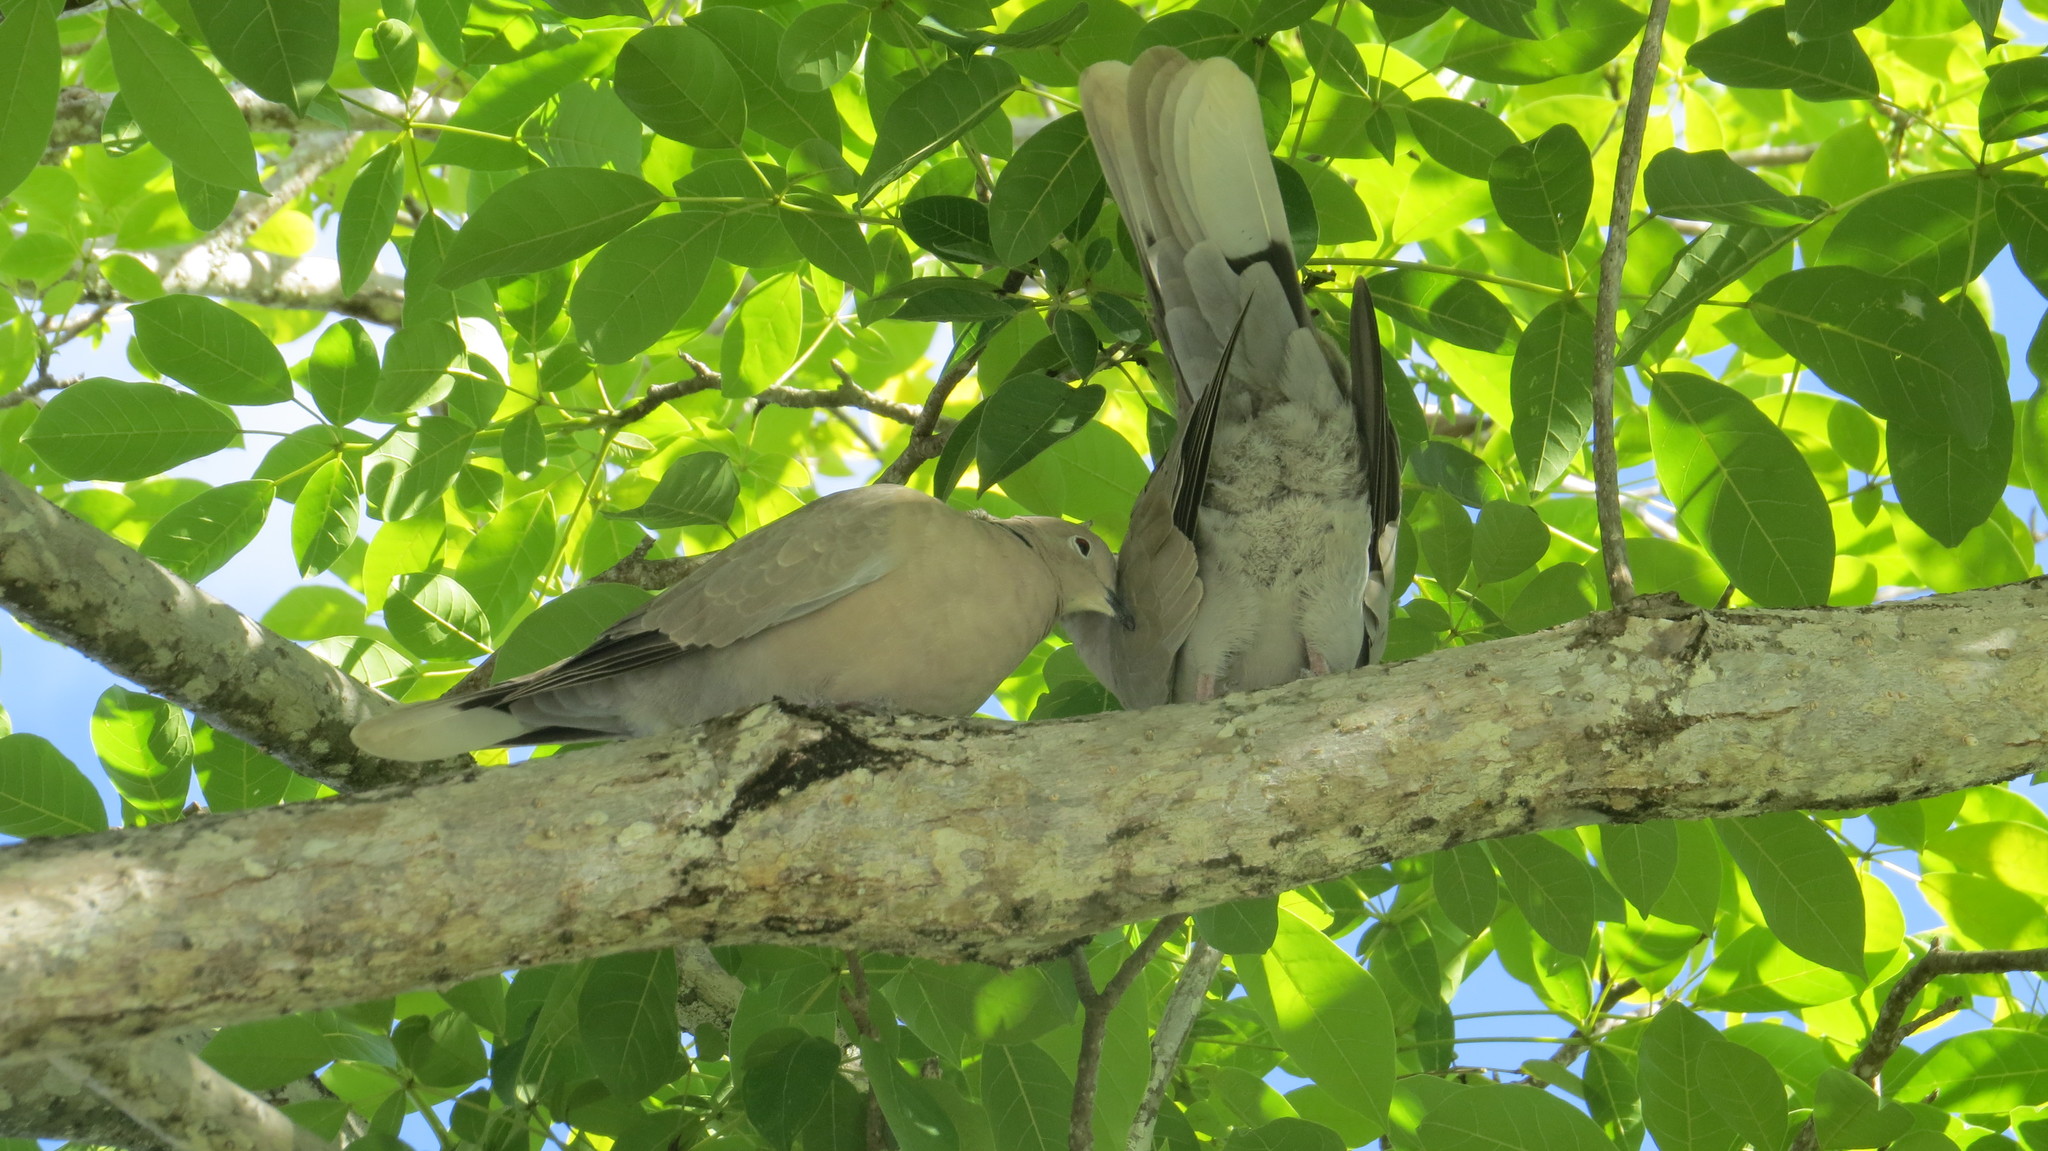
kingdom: Animalia
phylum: Chordata
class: Aves
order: Columbiformes
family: Columbidae
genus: Streptopelia
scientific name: Streptopelia decaocto
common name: Eurasian collared dove
